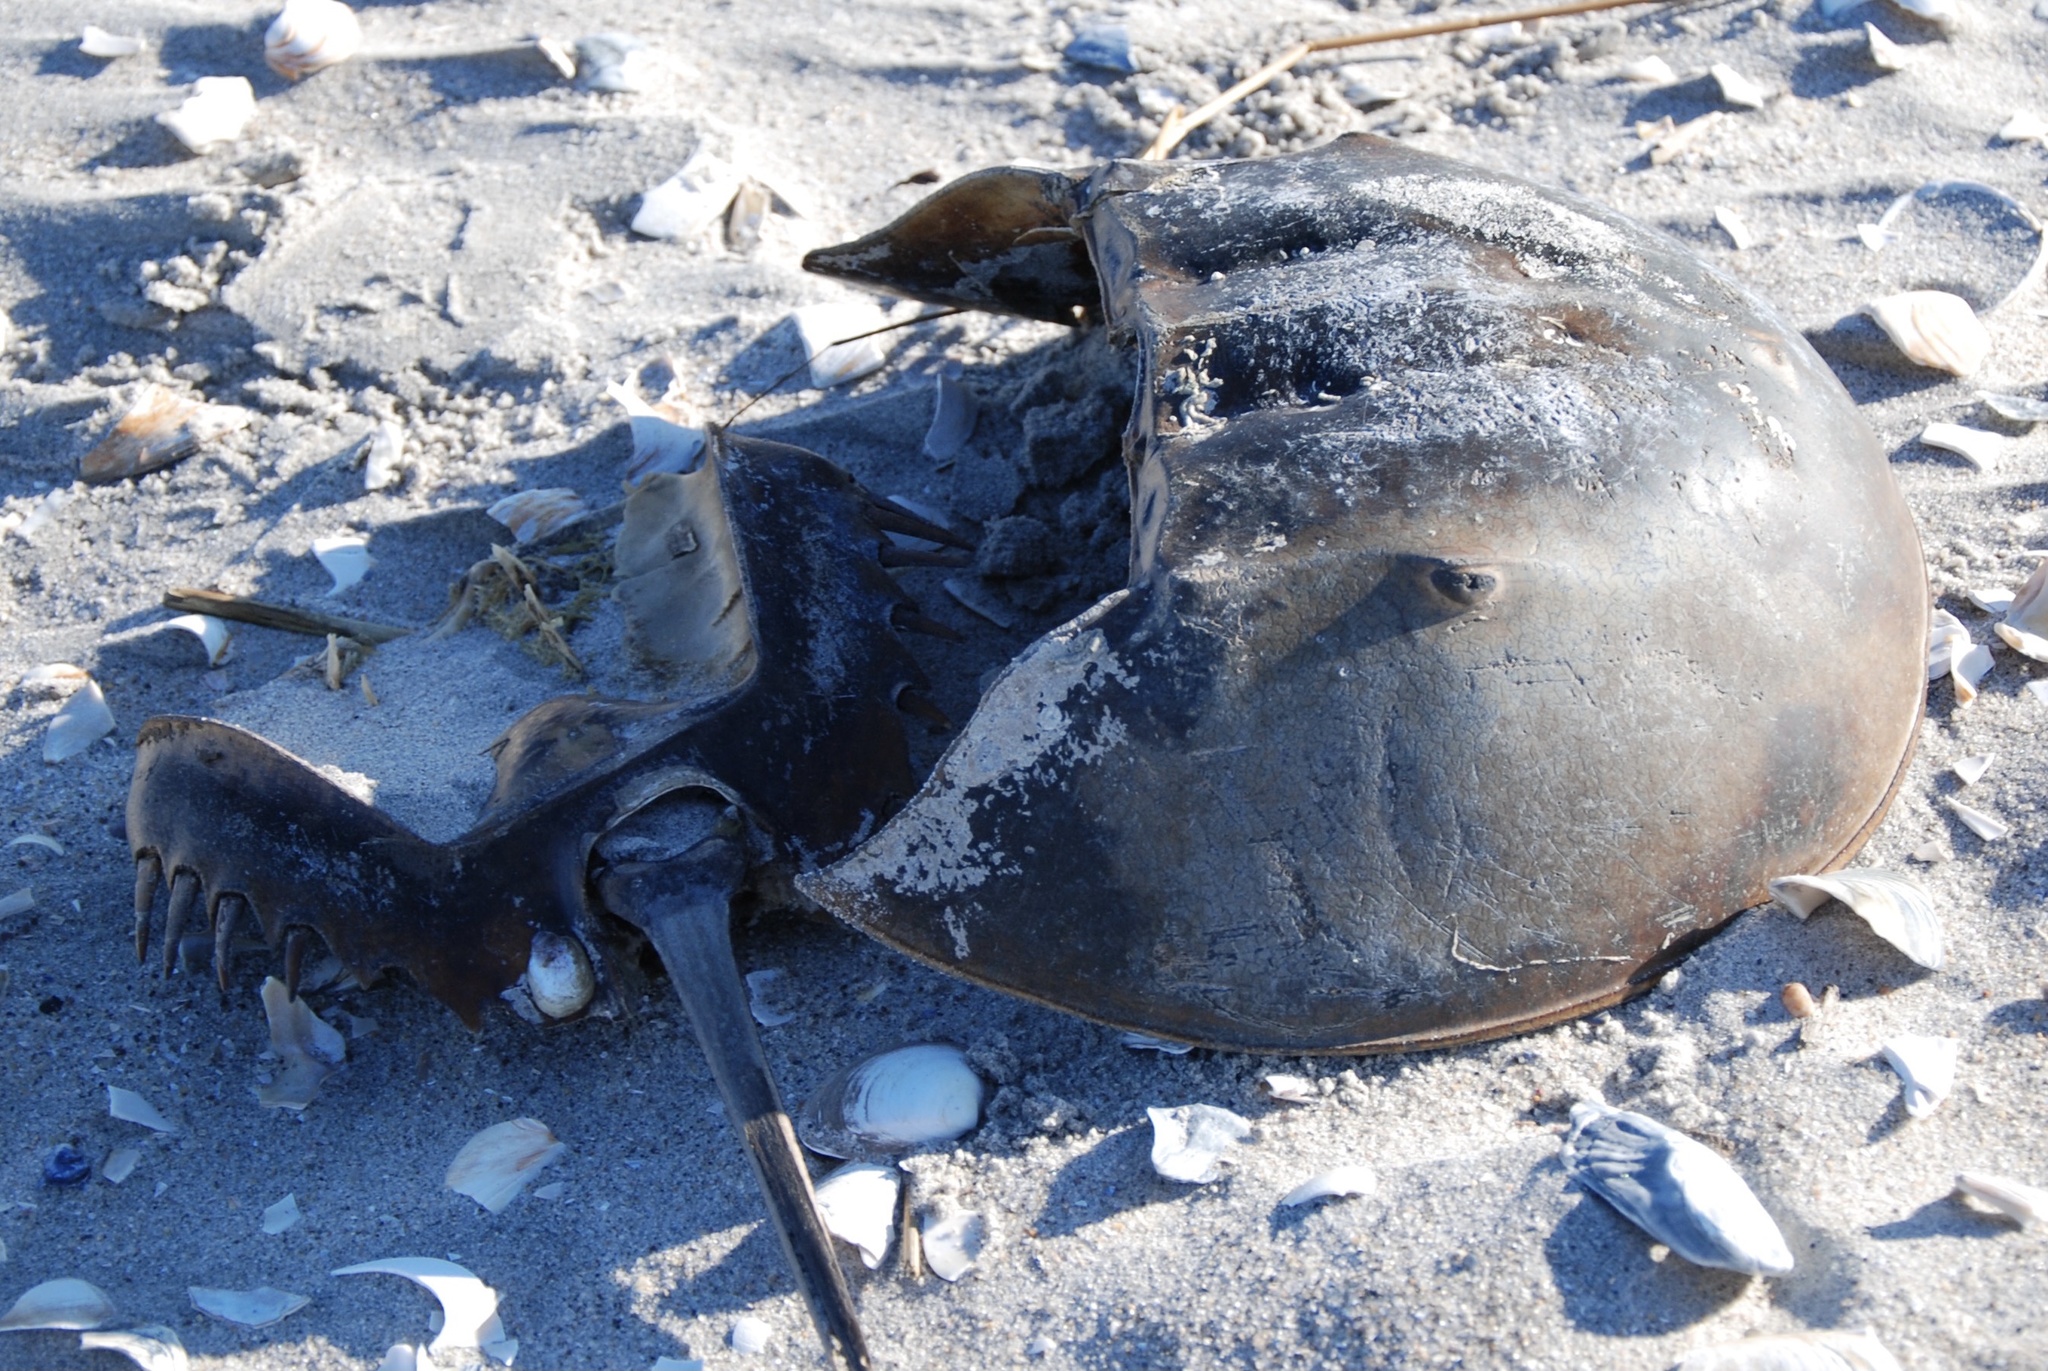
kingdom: Animalia
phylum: Arthropoda
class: Merostomata
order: Xiphosurida
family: Limulidae
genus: Limulus
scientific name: Limulus polyphemus
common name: Horseshoe crab
